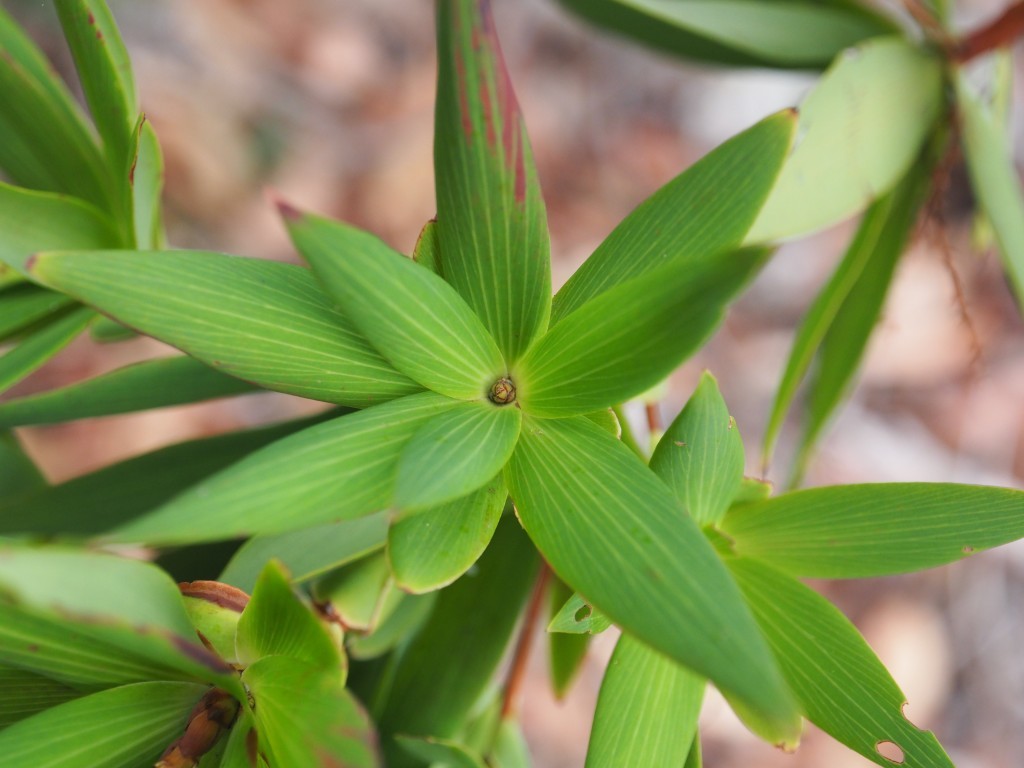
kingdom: Plantae
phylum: Tracheophyta
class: Magnoliopsida
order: Ericales
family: Ericaceae
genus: Leucopogon
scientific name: Leucopogon verticillatus
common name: Tasselshrub
